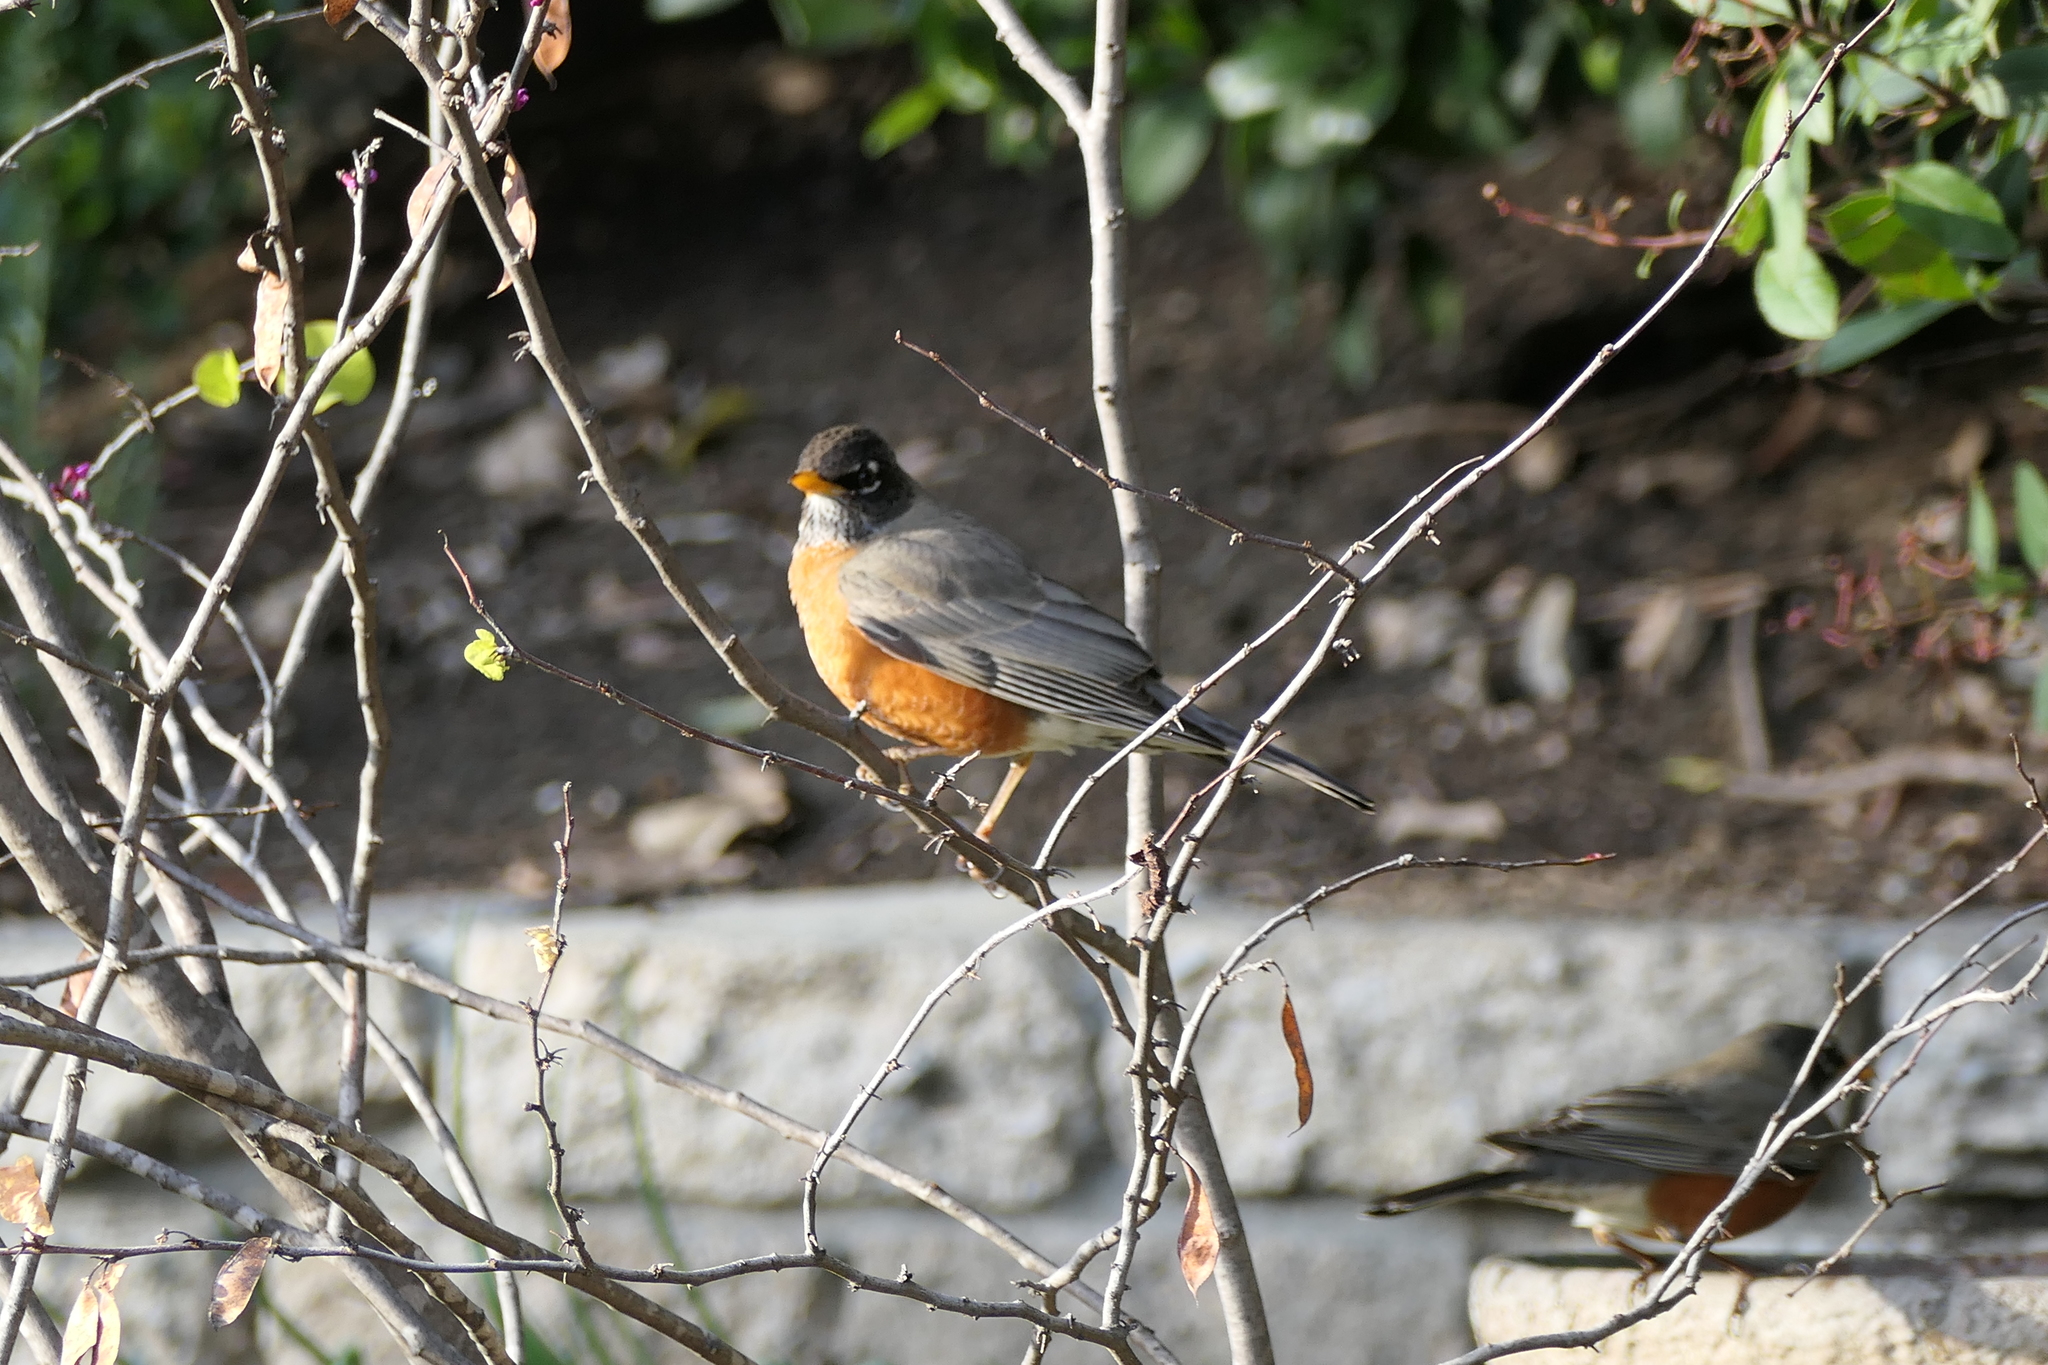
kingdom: Animalia
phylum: Chordata
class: Aves
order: Passeriformes
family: Turdidae
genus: Turdus
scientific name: Turdus migratorius
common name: American robin
